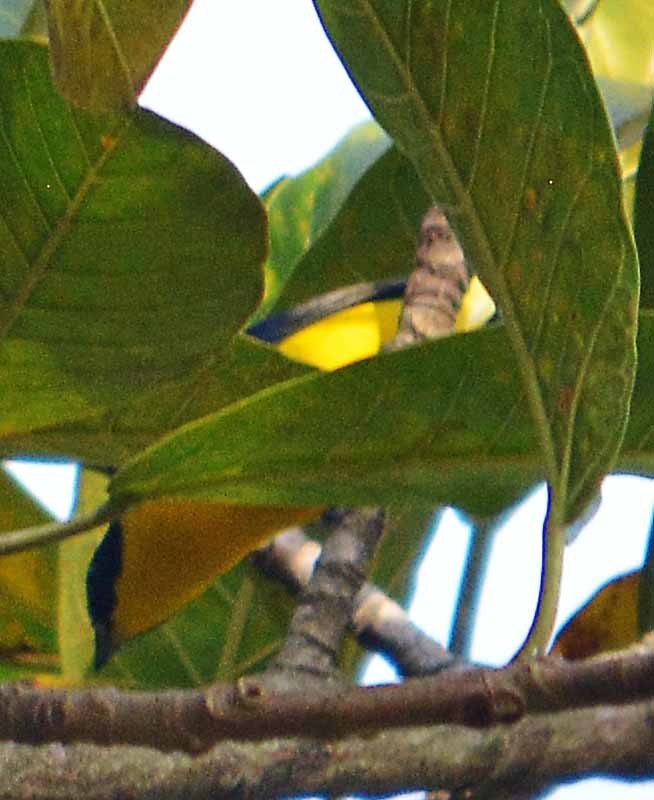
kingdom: Animalia
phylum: Chordata
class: Aves
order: Passeriformes
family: Fringillidae
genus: Euphonia
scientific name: Euphonia hirundinacea
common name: Yellow-throated euphonia
